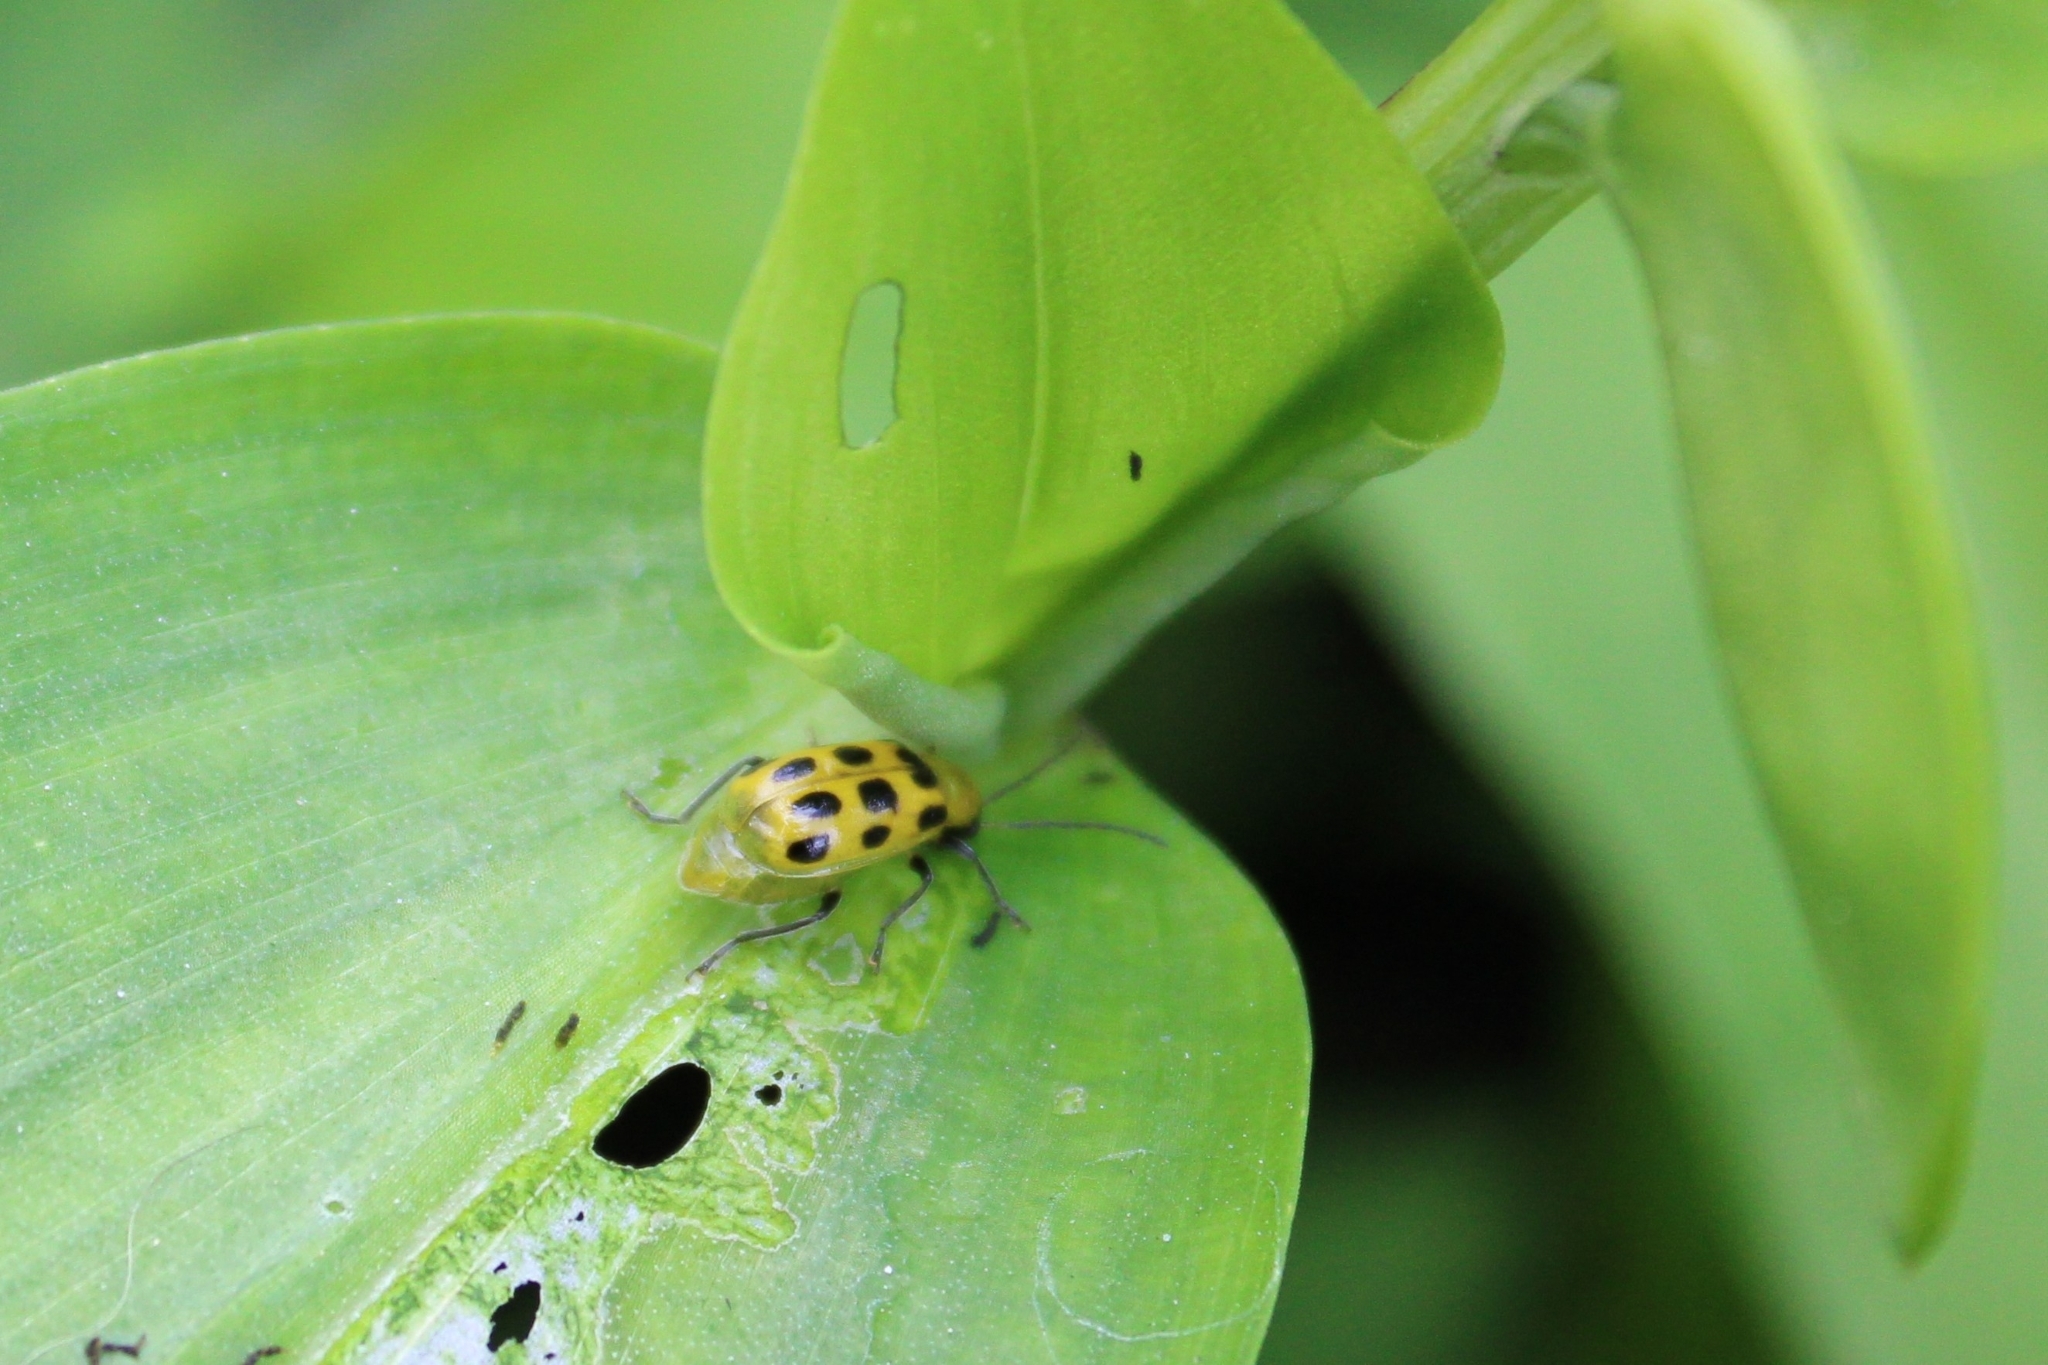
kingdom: Animalia
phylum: Arthropoda
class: Insecta
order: Coleoptera
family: Chrysomelidae
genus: Diabrotica
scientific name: Diabrotica undecimpunctata
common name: Spotted cucumber beetle
